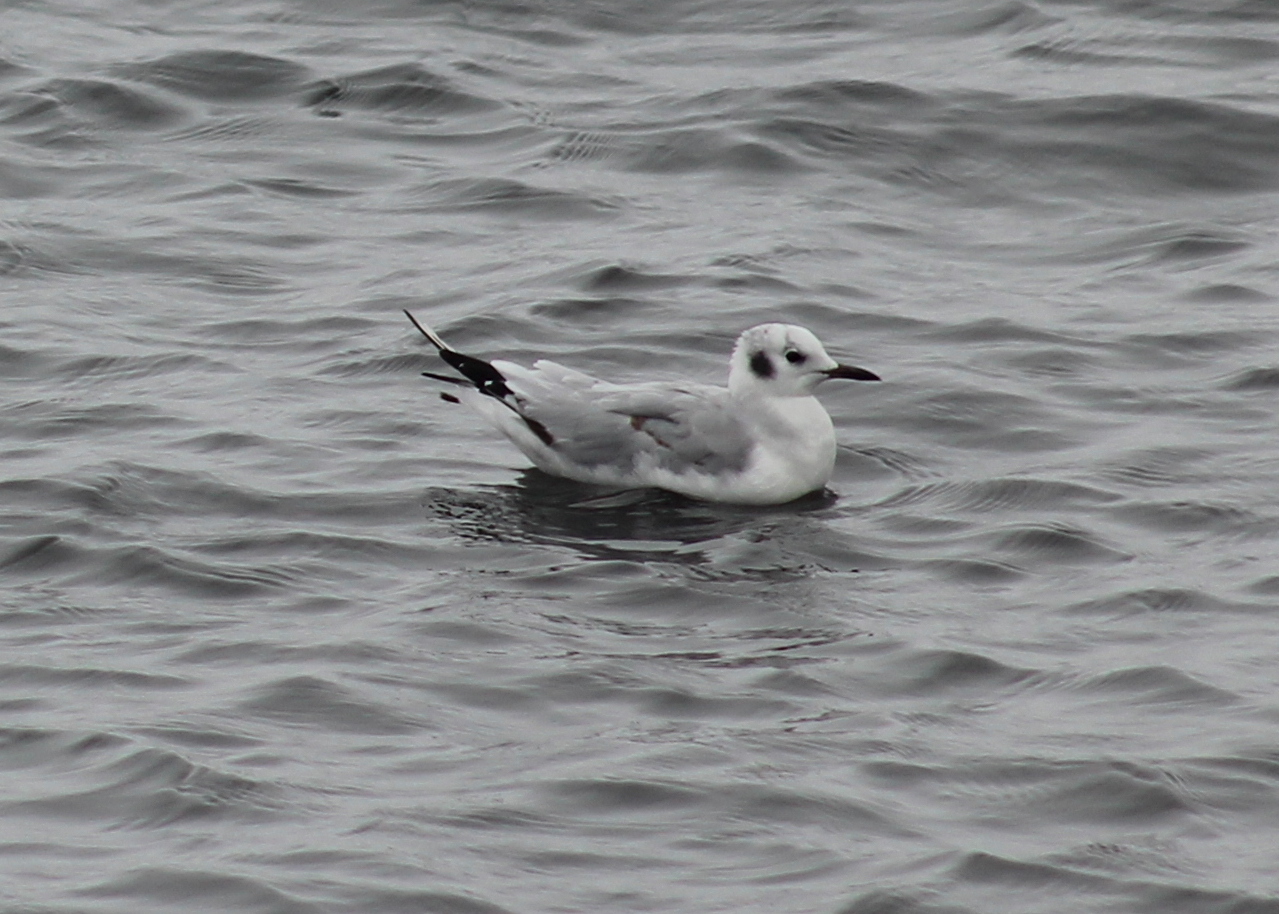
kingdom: Animalia
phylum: Chordata
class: Aves
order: Charadriiformes
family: Laridae
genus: Chroicocephalus
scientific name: Chroicocephalus philadelphia
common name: Bonaparte's gull
